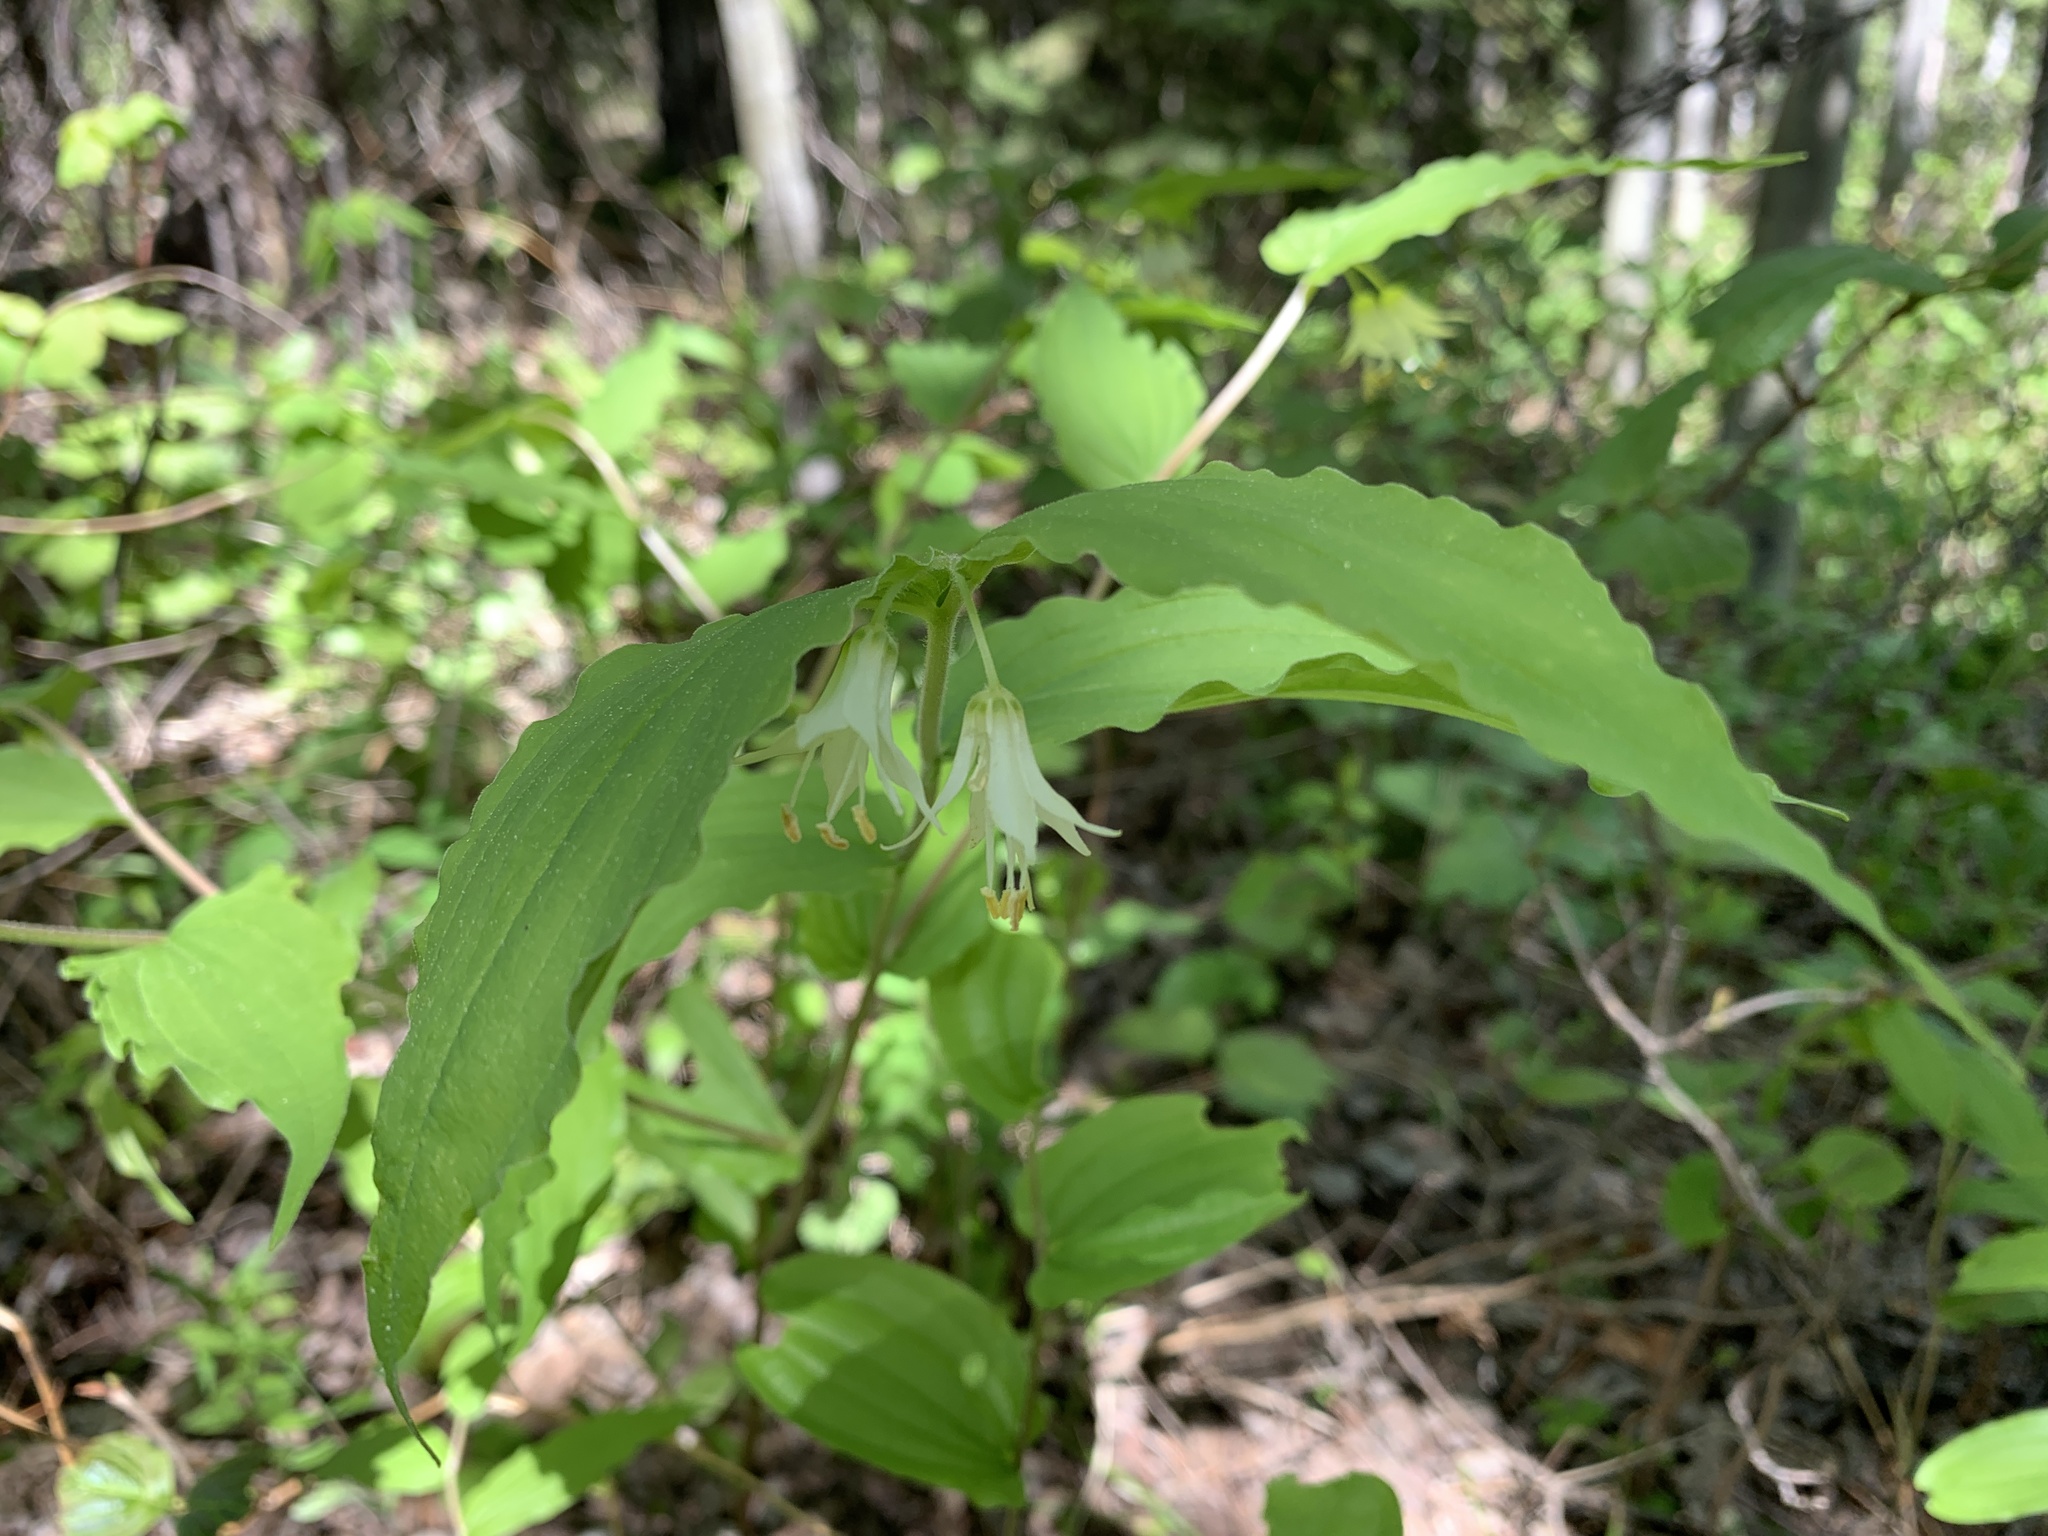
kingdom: Plantae
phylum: Tracheophyta
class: Liliopsida
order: Liliales
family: Liliaceae
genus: Prosartes
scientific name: Prosartes hookeri
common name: Fairy-bells
